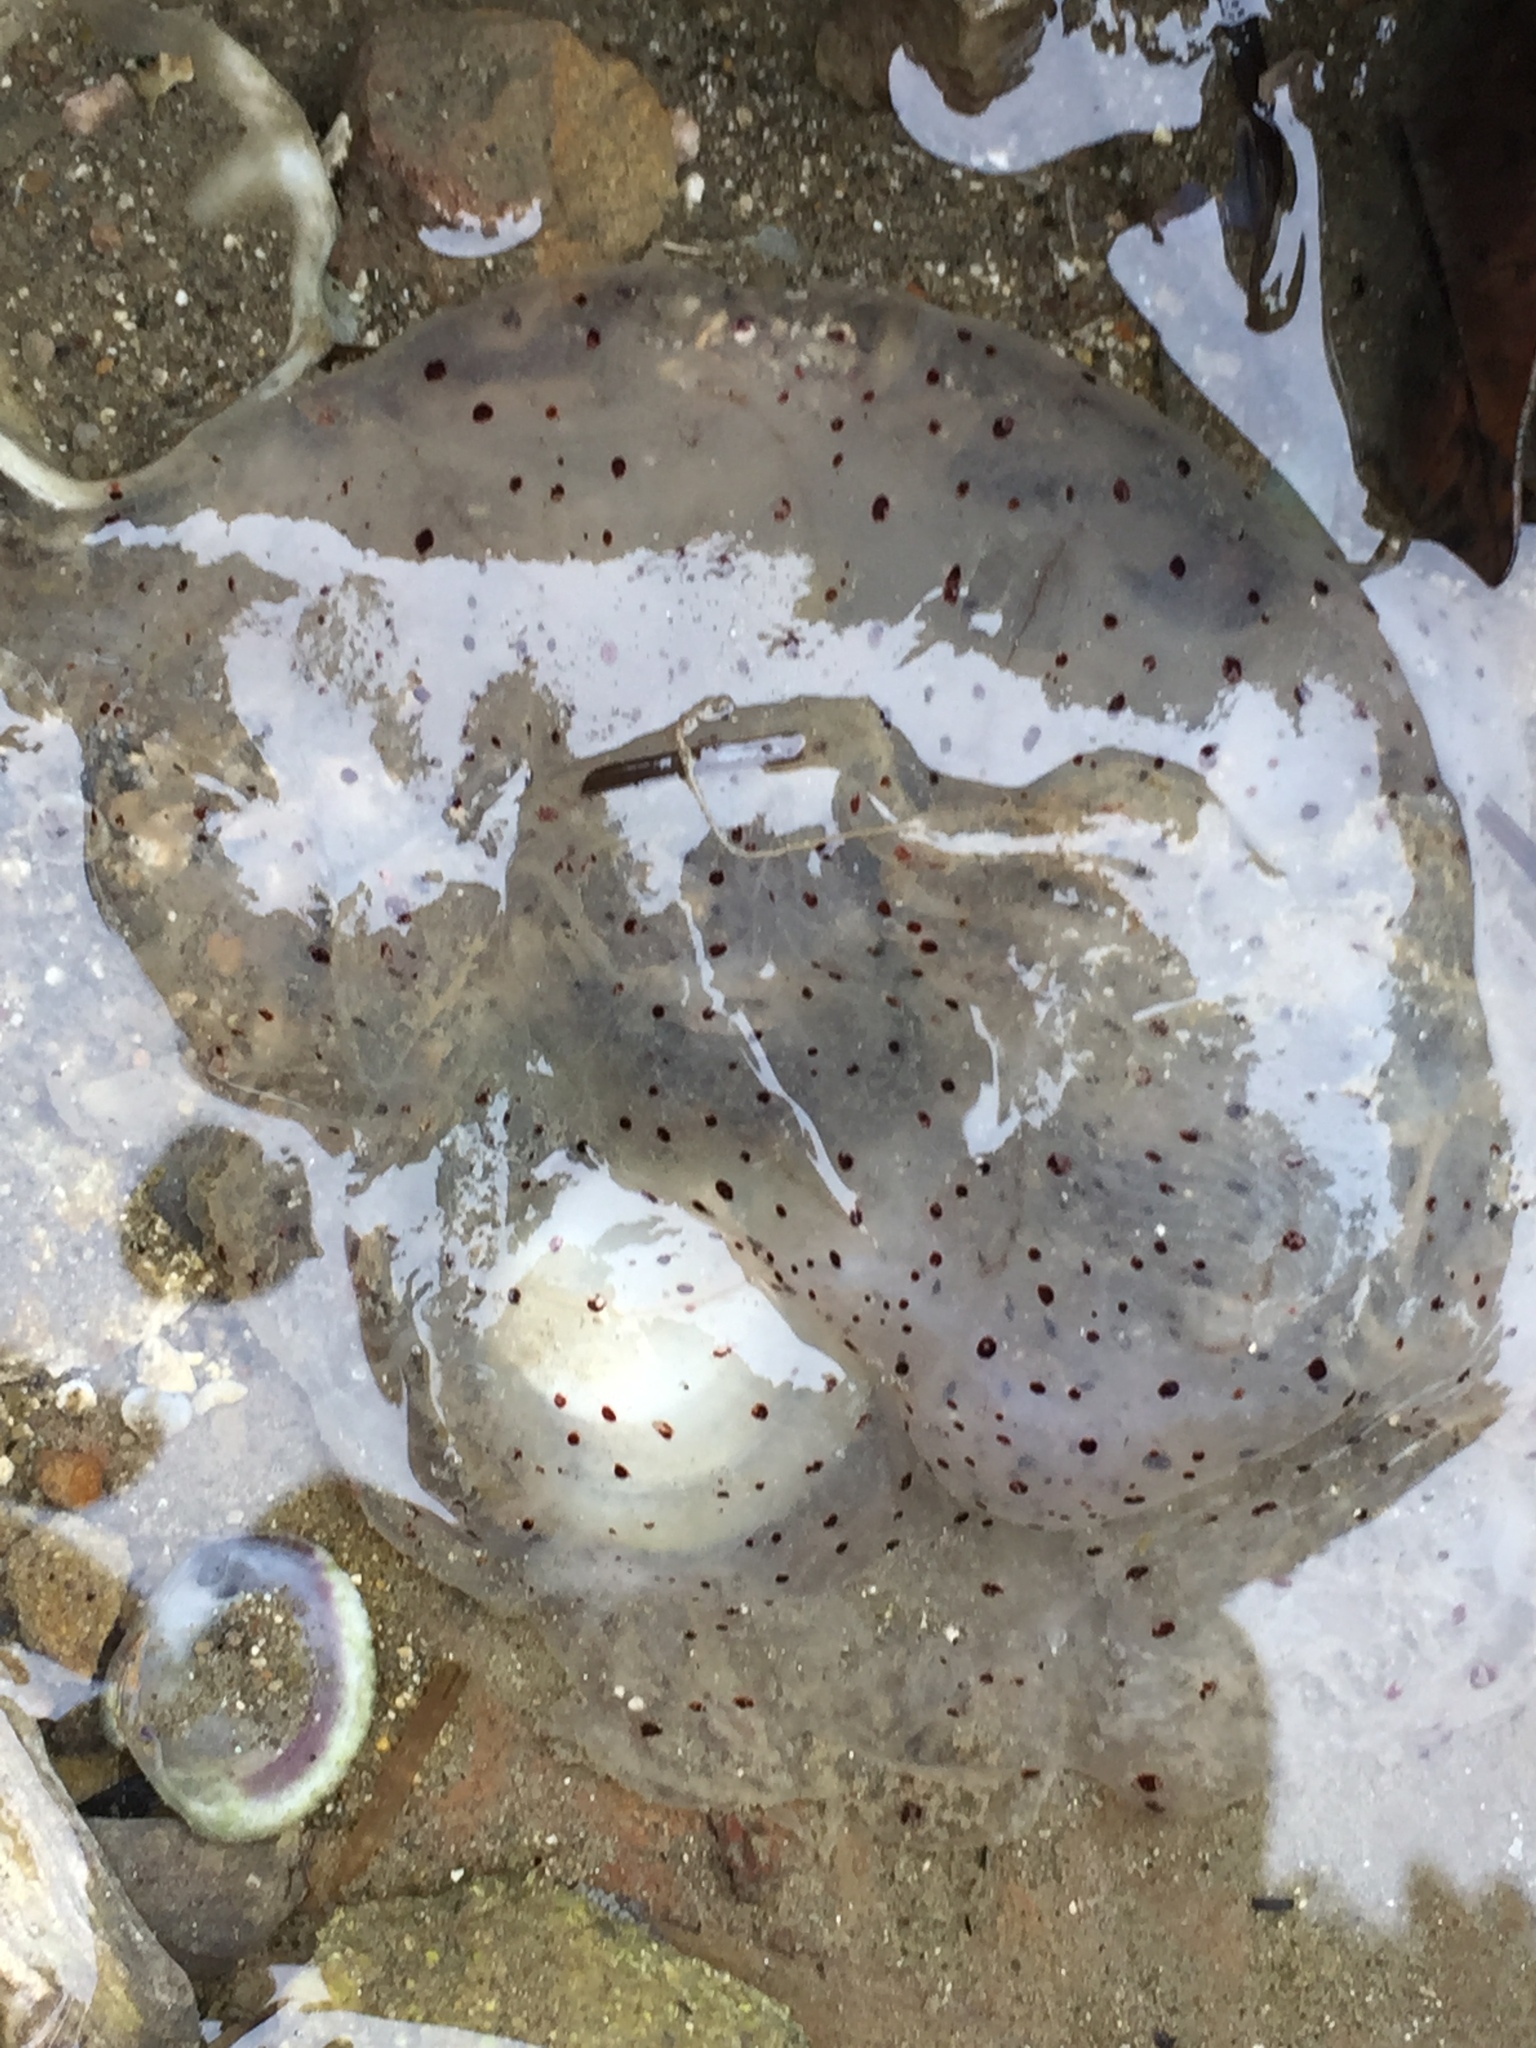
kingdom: Animalia
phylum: Cnidaria
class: Scyphozoa
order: Semaeostomeae
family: Cyaneidae
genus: Desmonema
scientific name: Desmonema gaudichaudi
